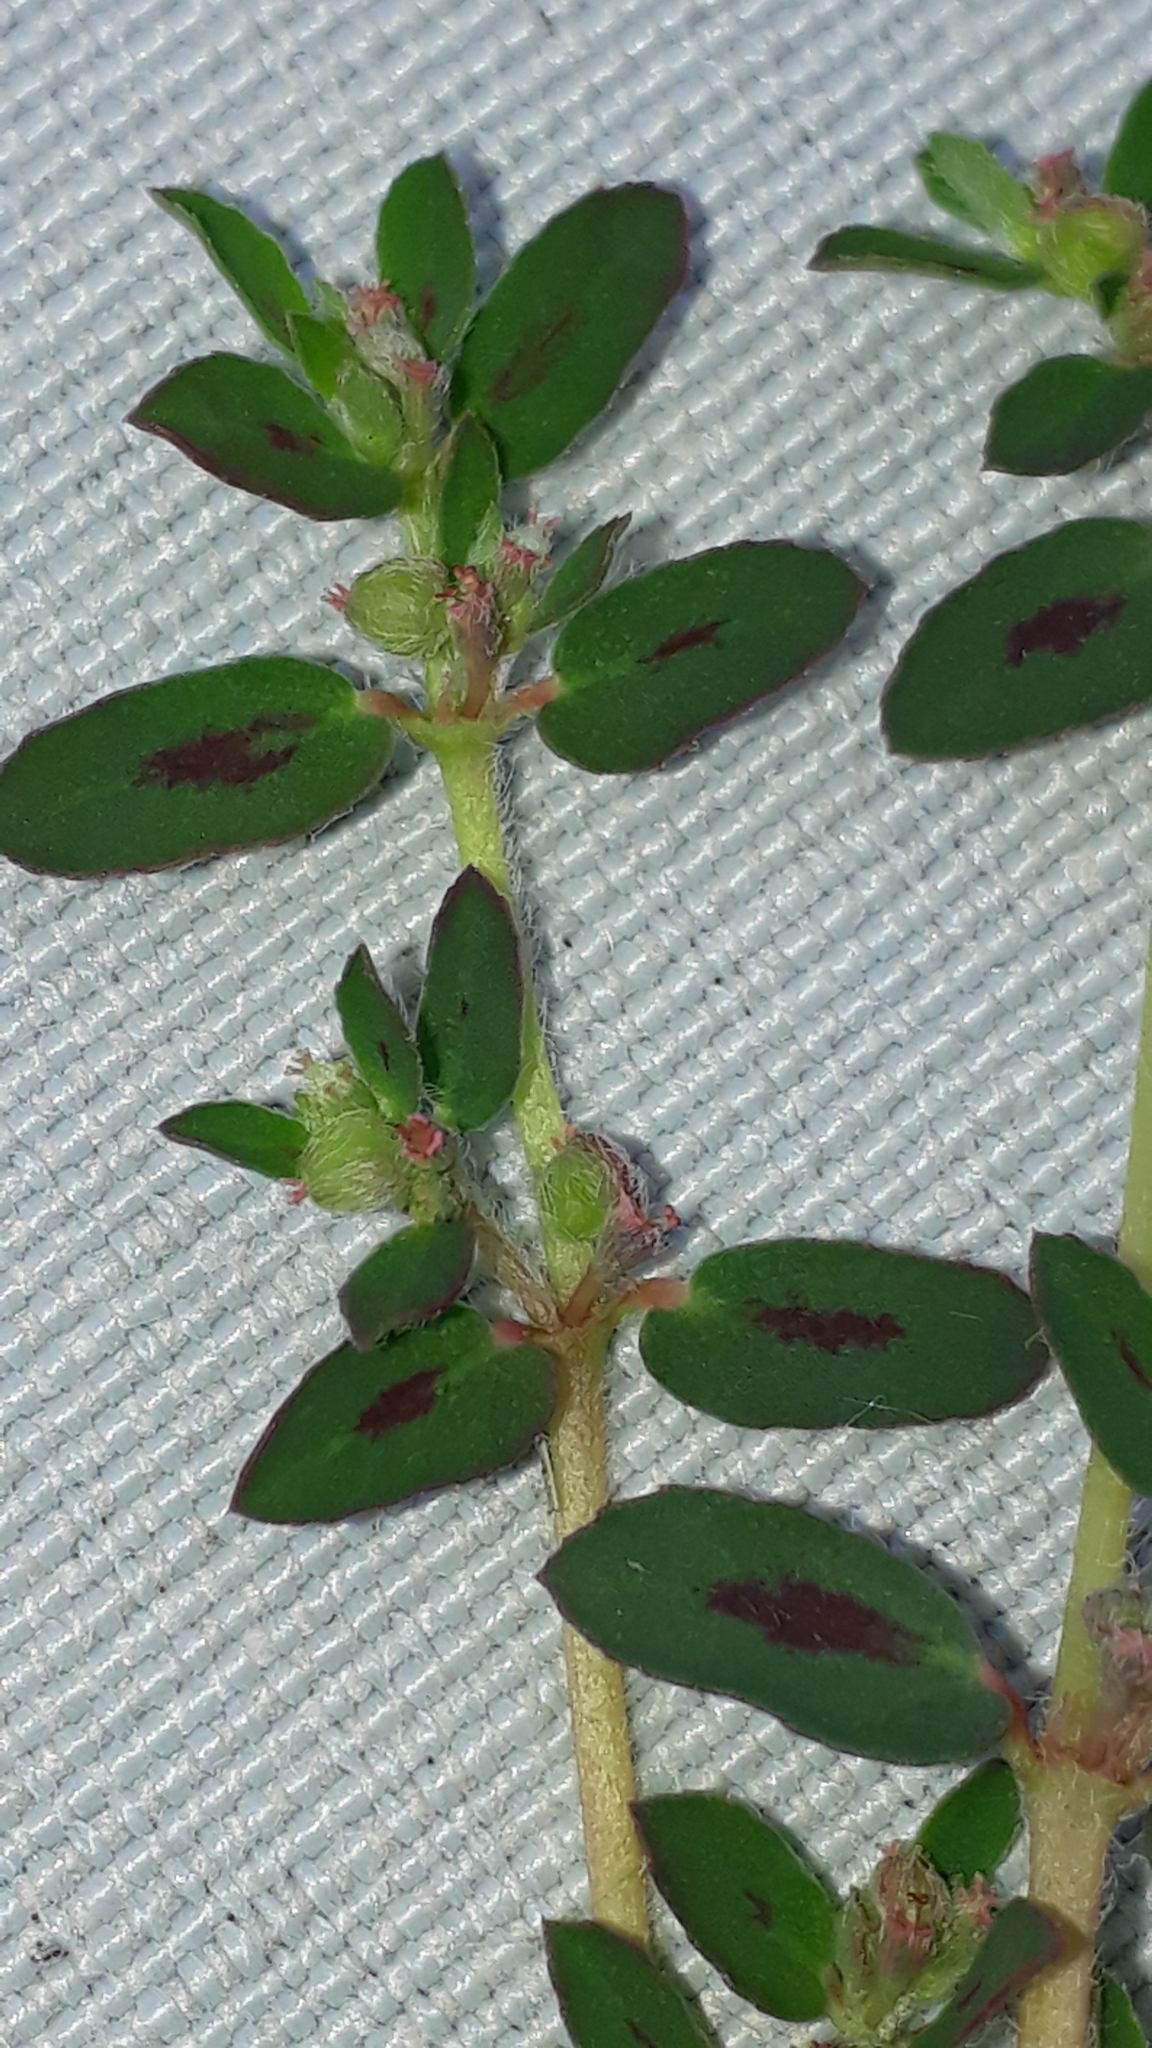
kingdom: Plantae
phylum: Tracheophyta
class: Magnoliopsida
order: Malpighiales
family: Euphorbiaceae
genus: Euphorbia
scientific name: Euphorbia maculata
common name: Spotted spurge
